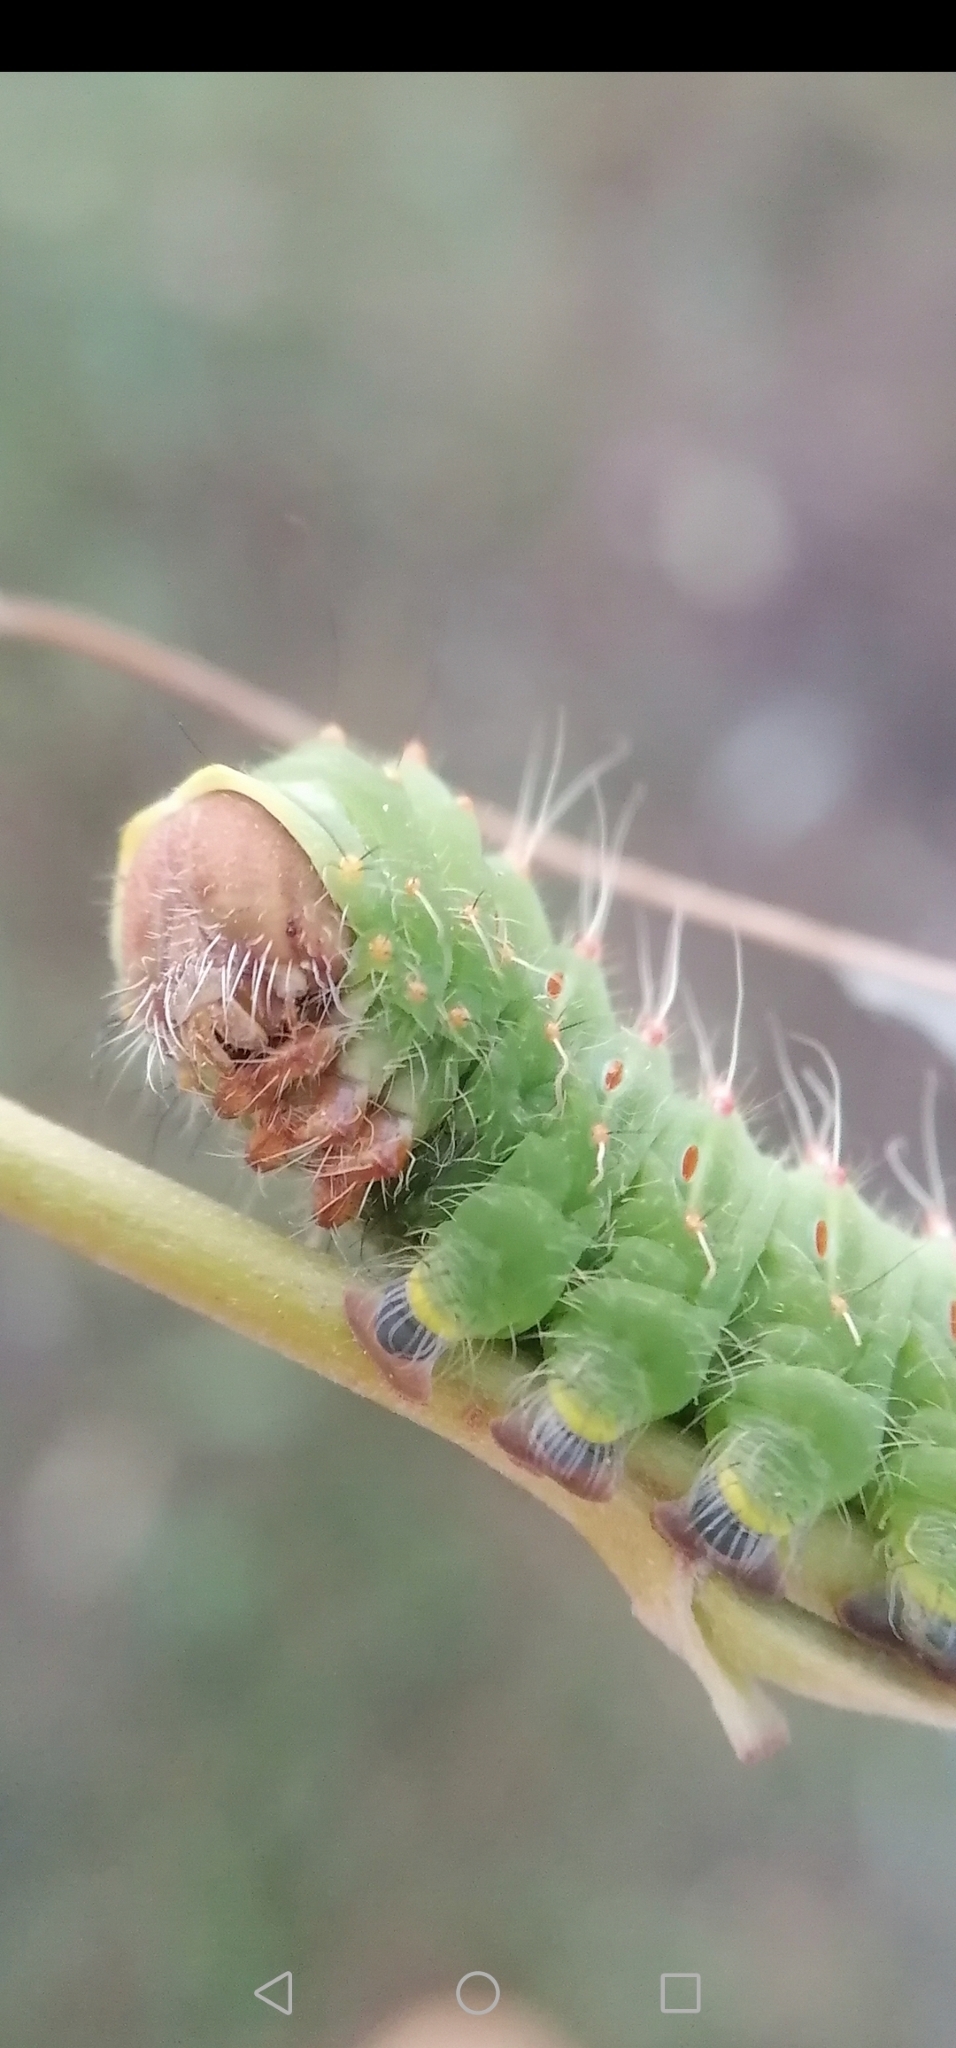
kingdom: Animalia
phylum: Arthropoda
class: Insecta
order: Lepidoptera
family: Saturniidae
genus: Antheraea
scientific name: Antheraea polyphemus
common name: Polyphemus moth
